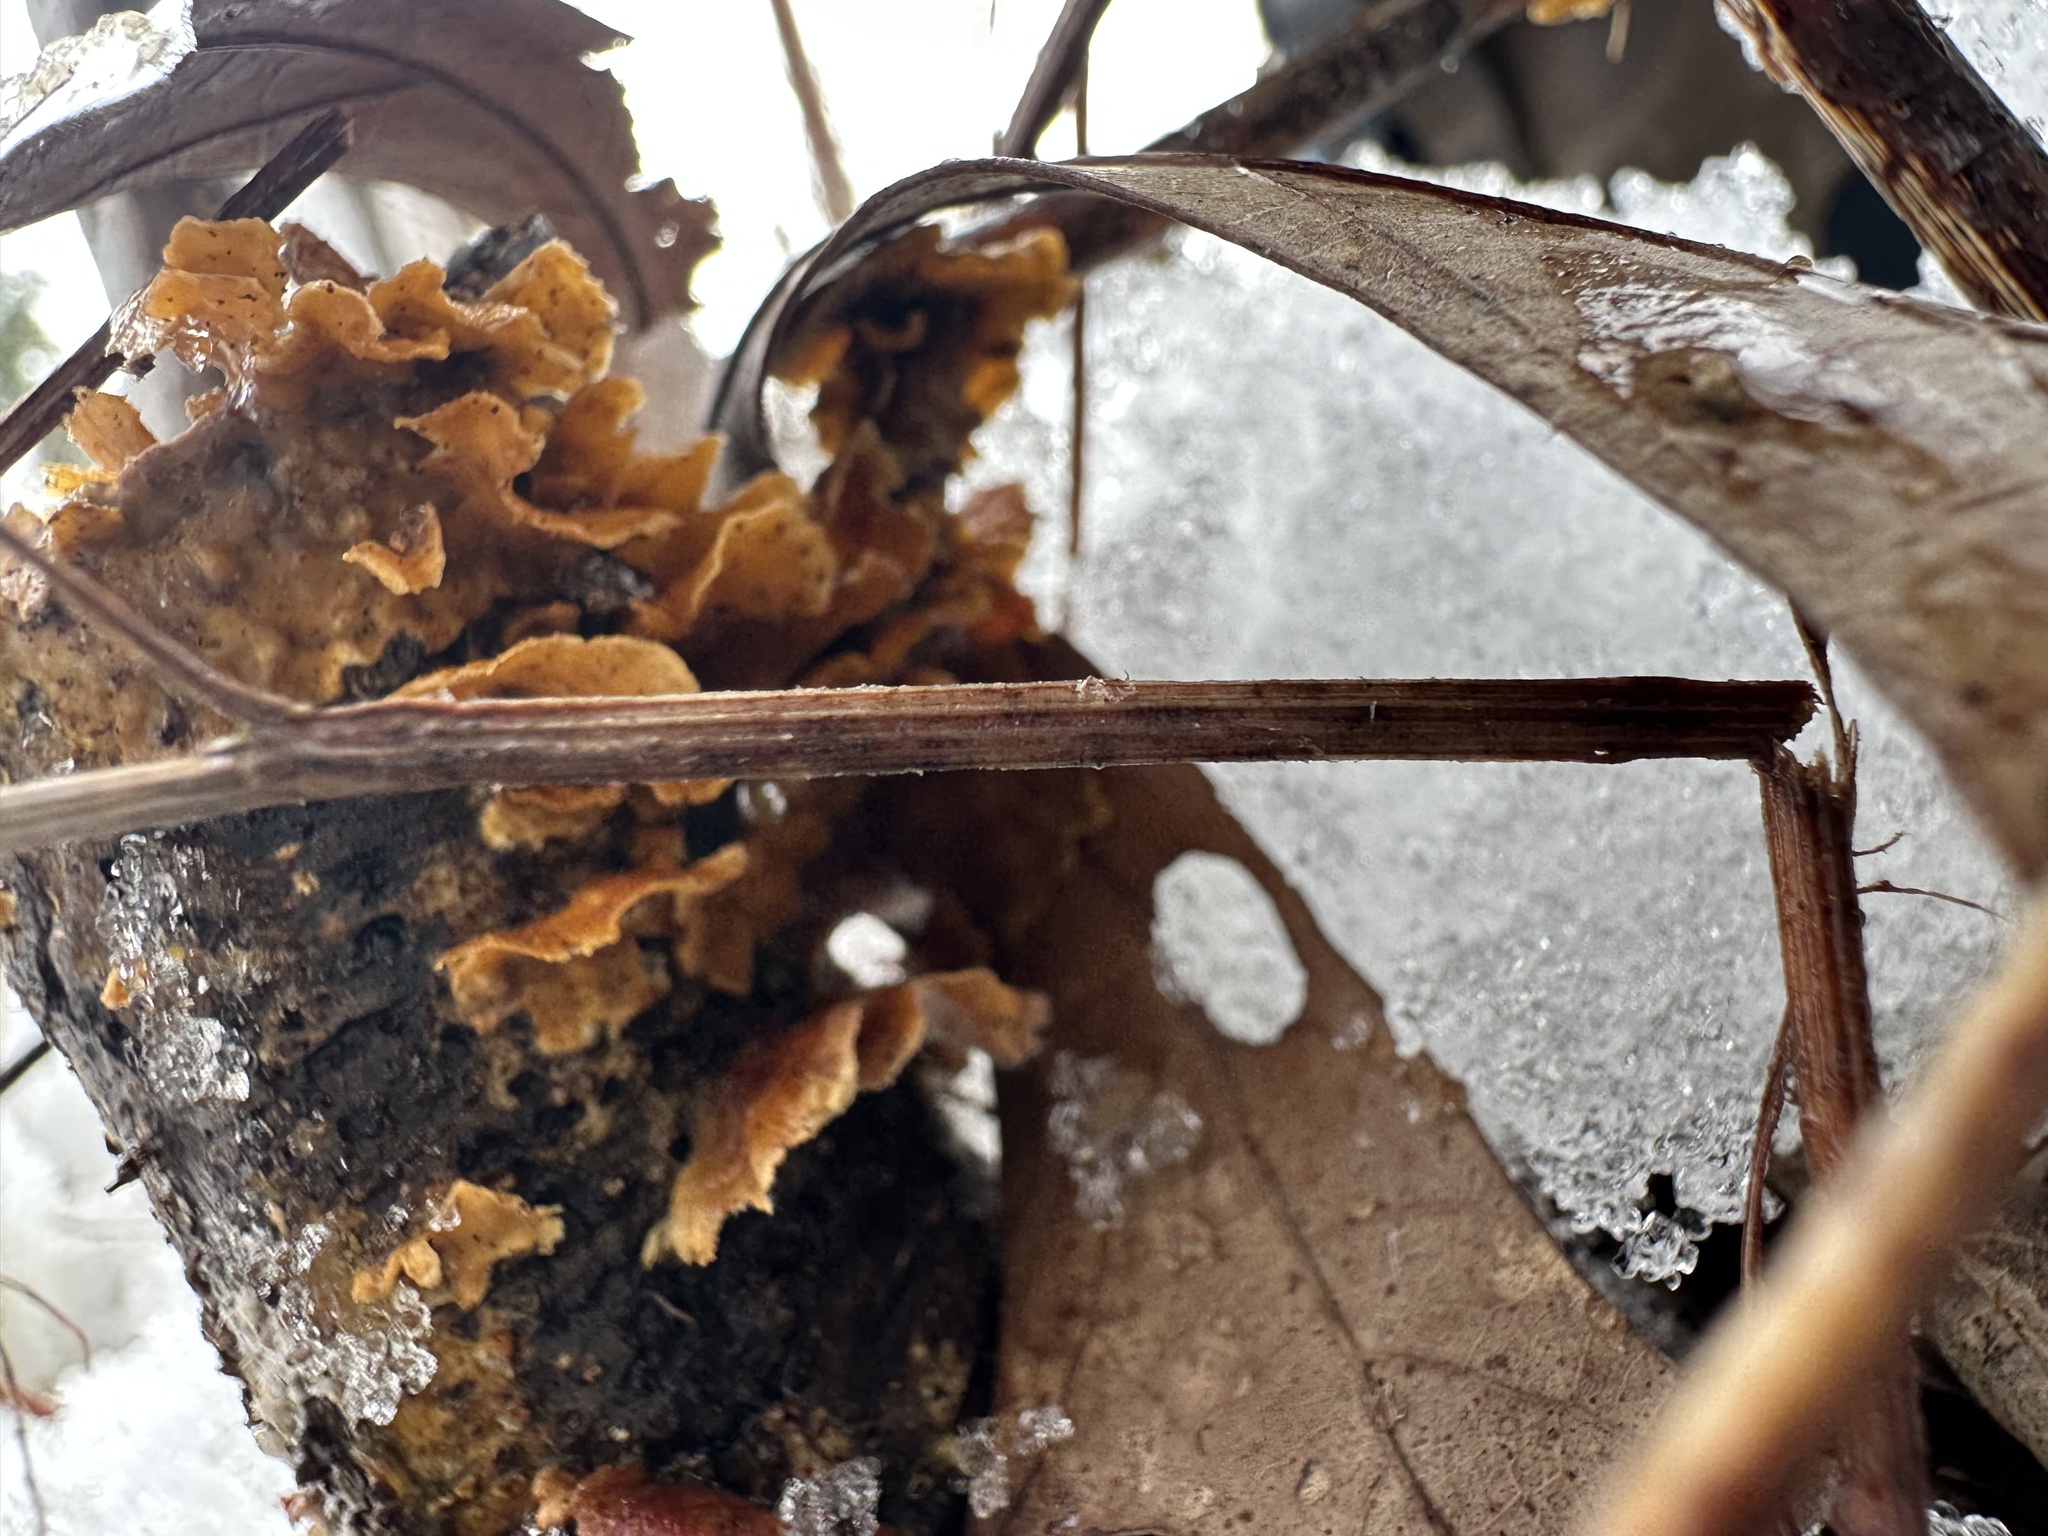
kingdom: Fungi
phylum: Basidiomycota
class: Agaricomycetes
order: Russulales
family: Stereaceae
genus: Stereum
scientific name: Stereum complicatum
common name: Crowded parchment
